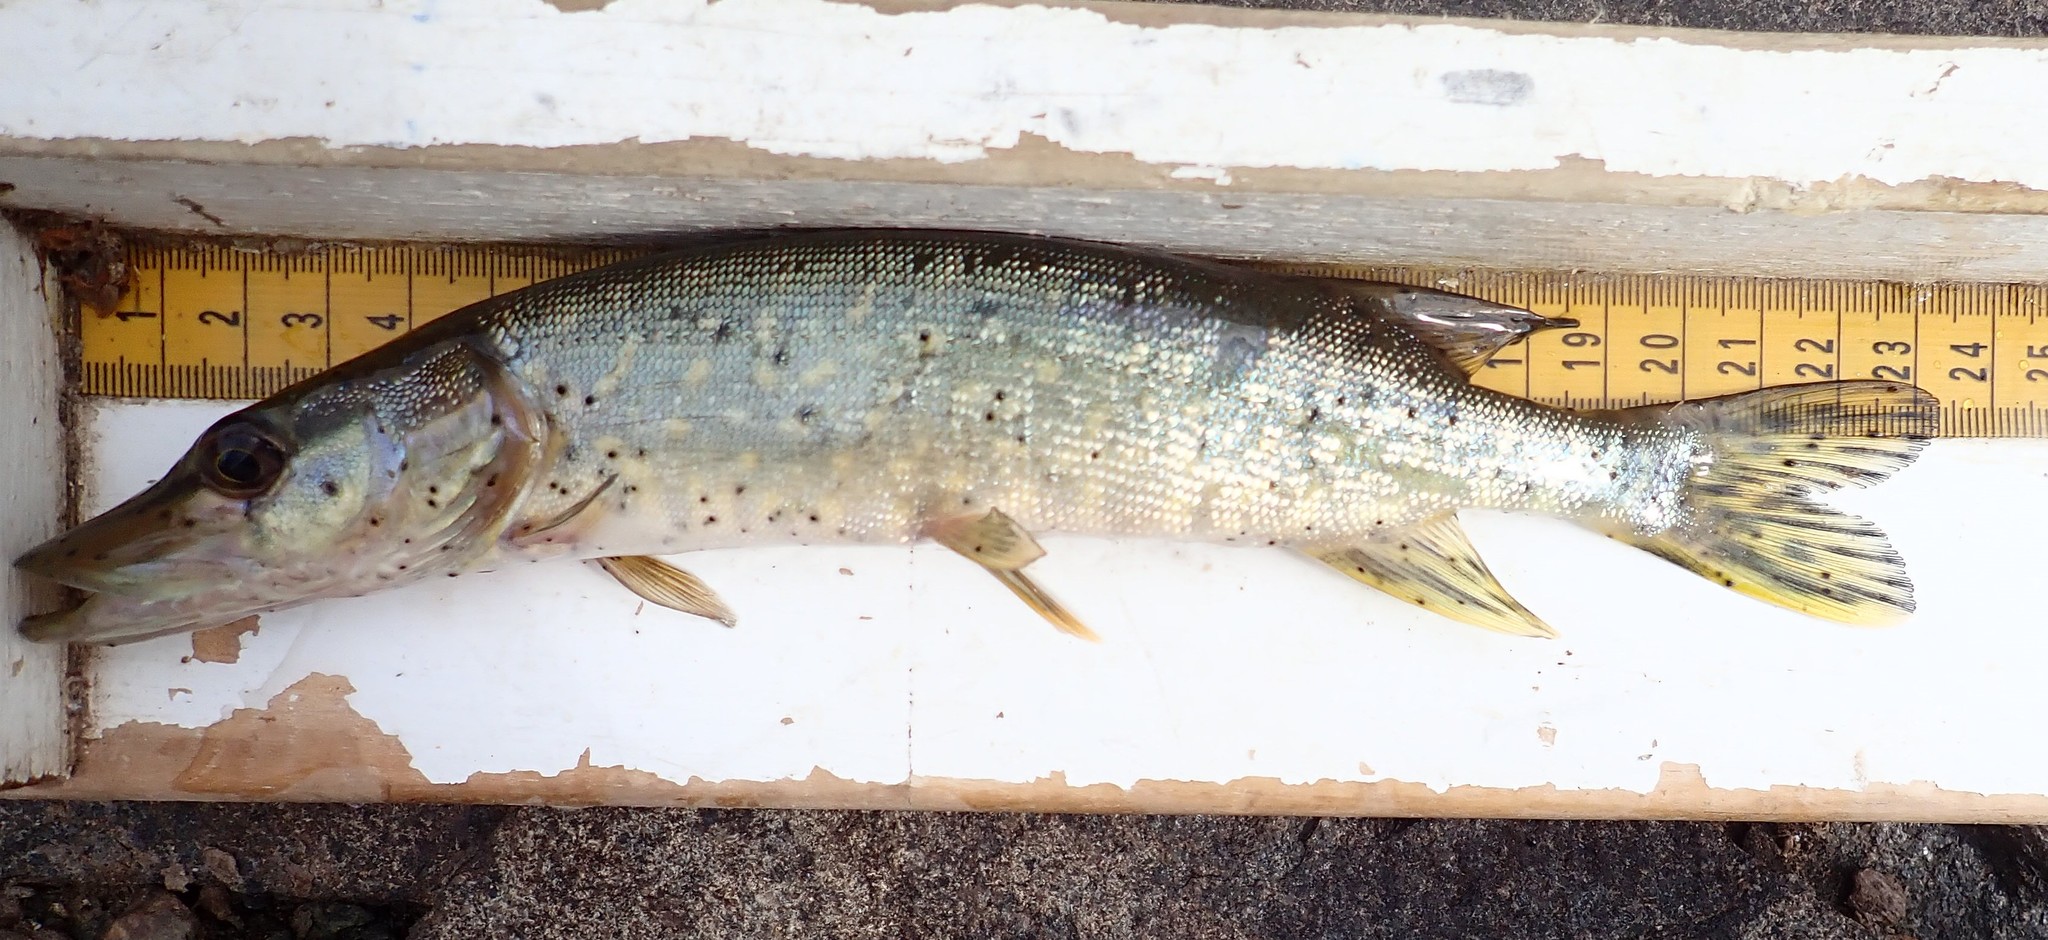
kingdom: Animalia
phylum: Chordata
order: Esociformes
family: Esocidae
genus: Esox
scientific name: Esox lucius
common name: Northern pike
